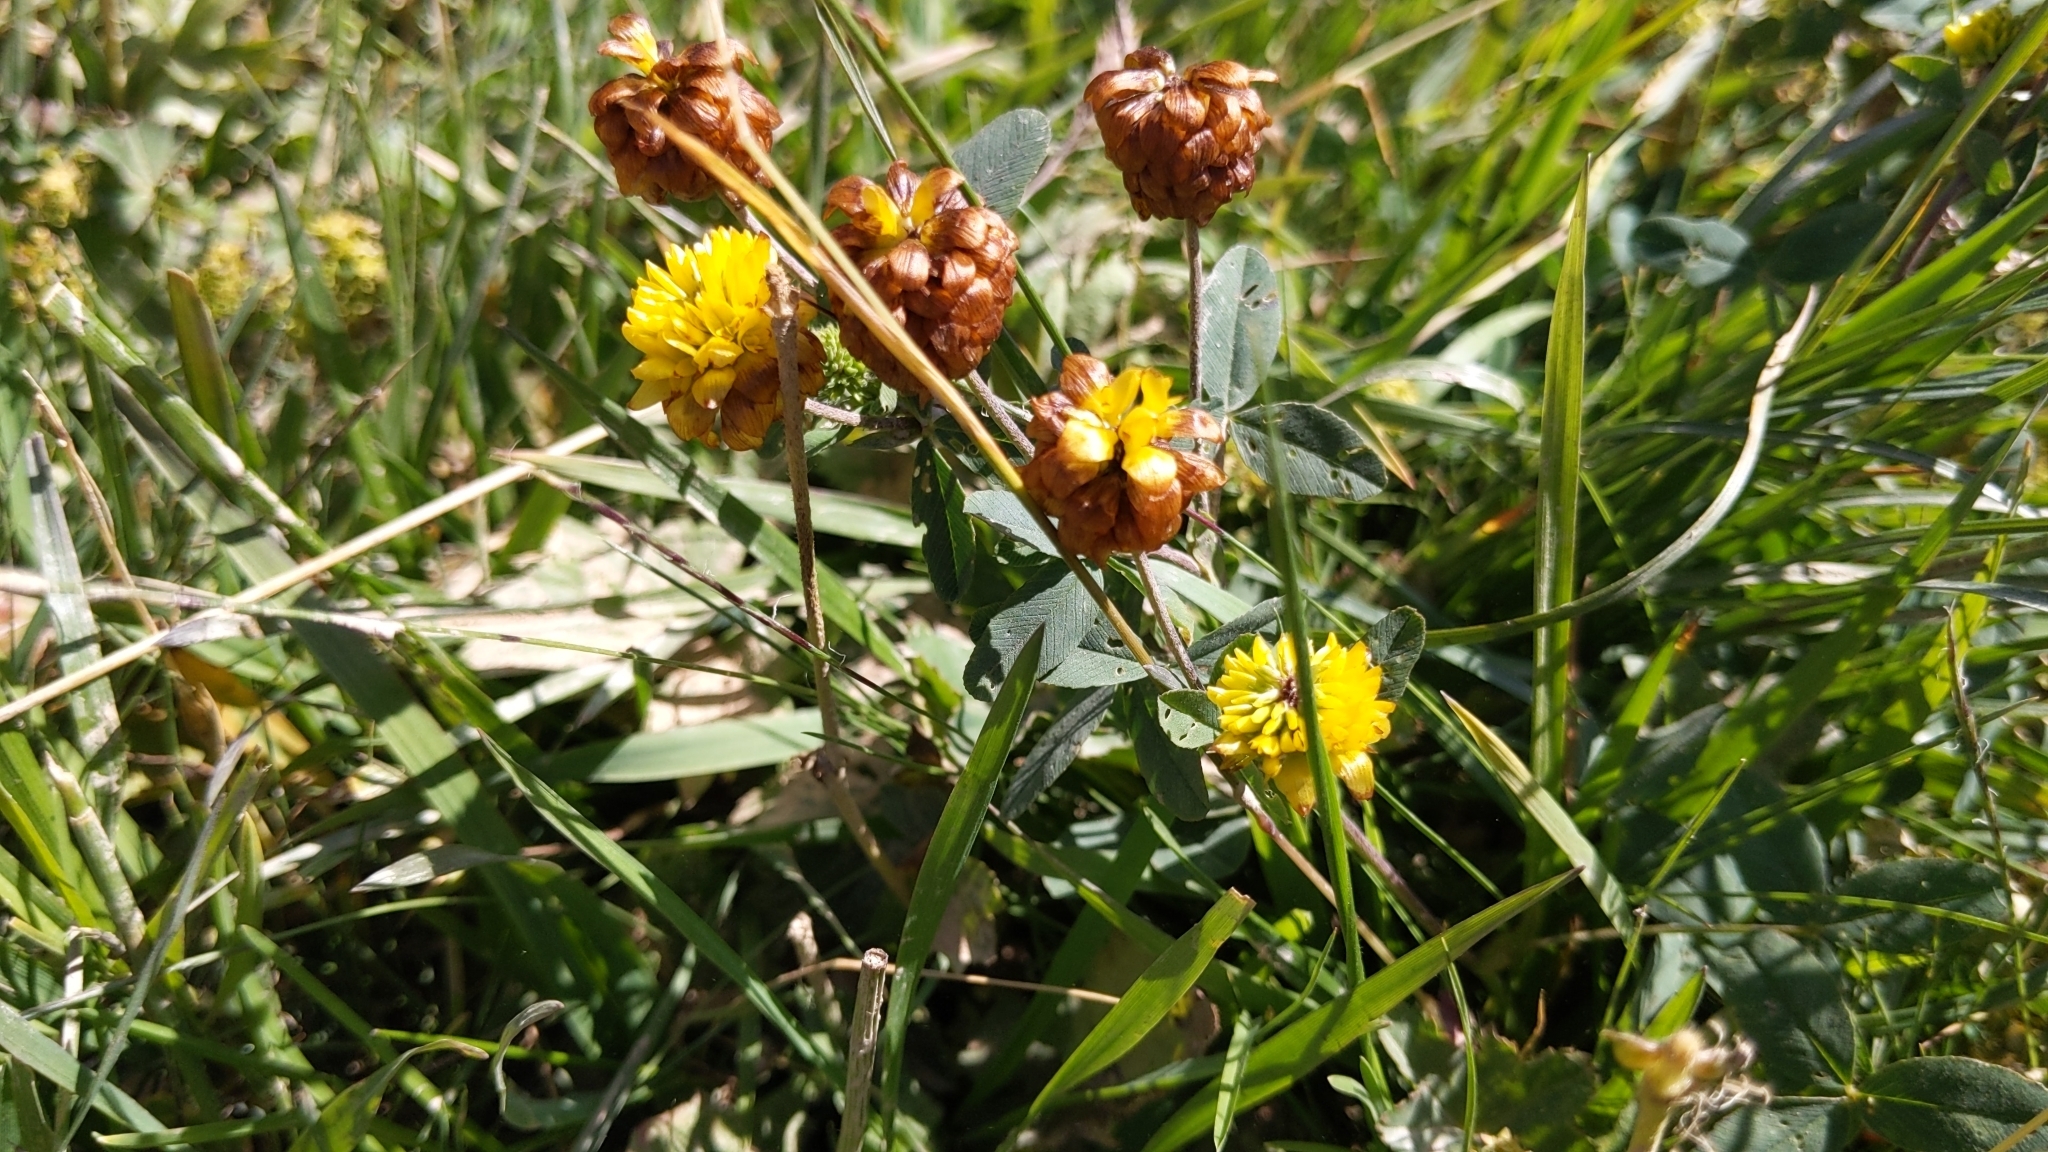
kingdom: Plantae
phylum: Tracheophyta
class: Magnoliopsida
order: Fabales
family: Fabaceae
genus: Trifolium
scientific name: Trifolium badium
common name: Brown clover
